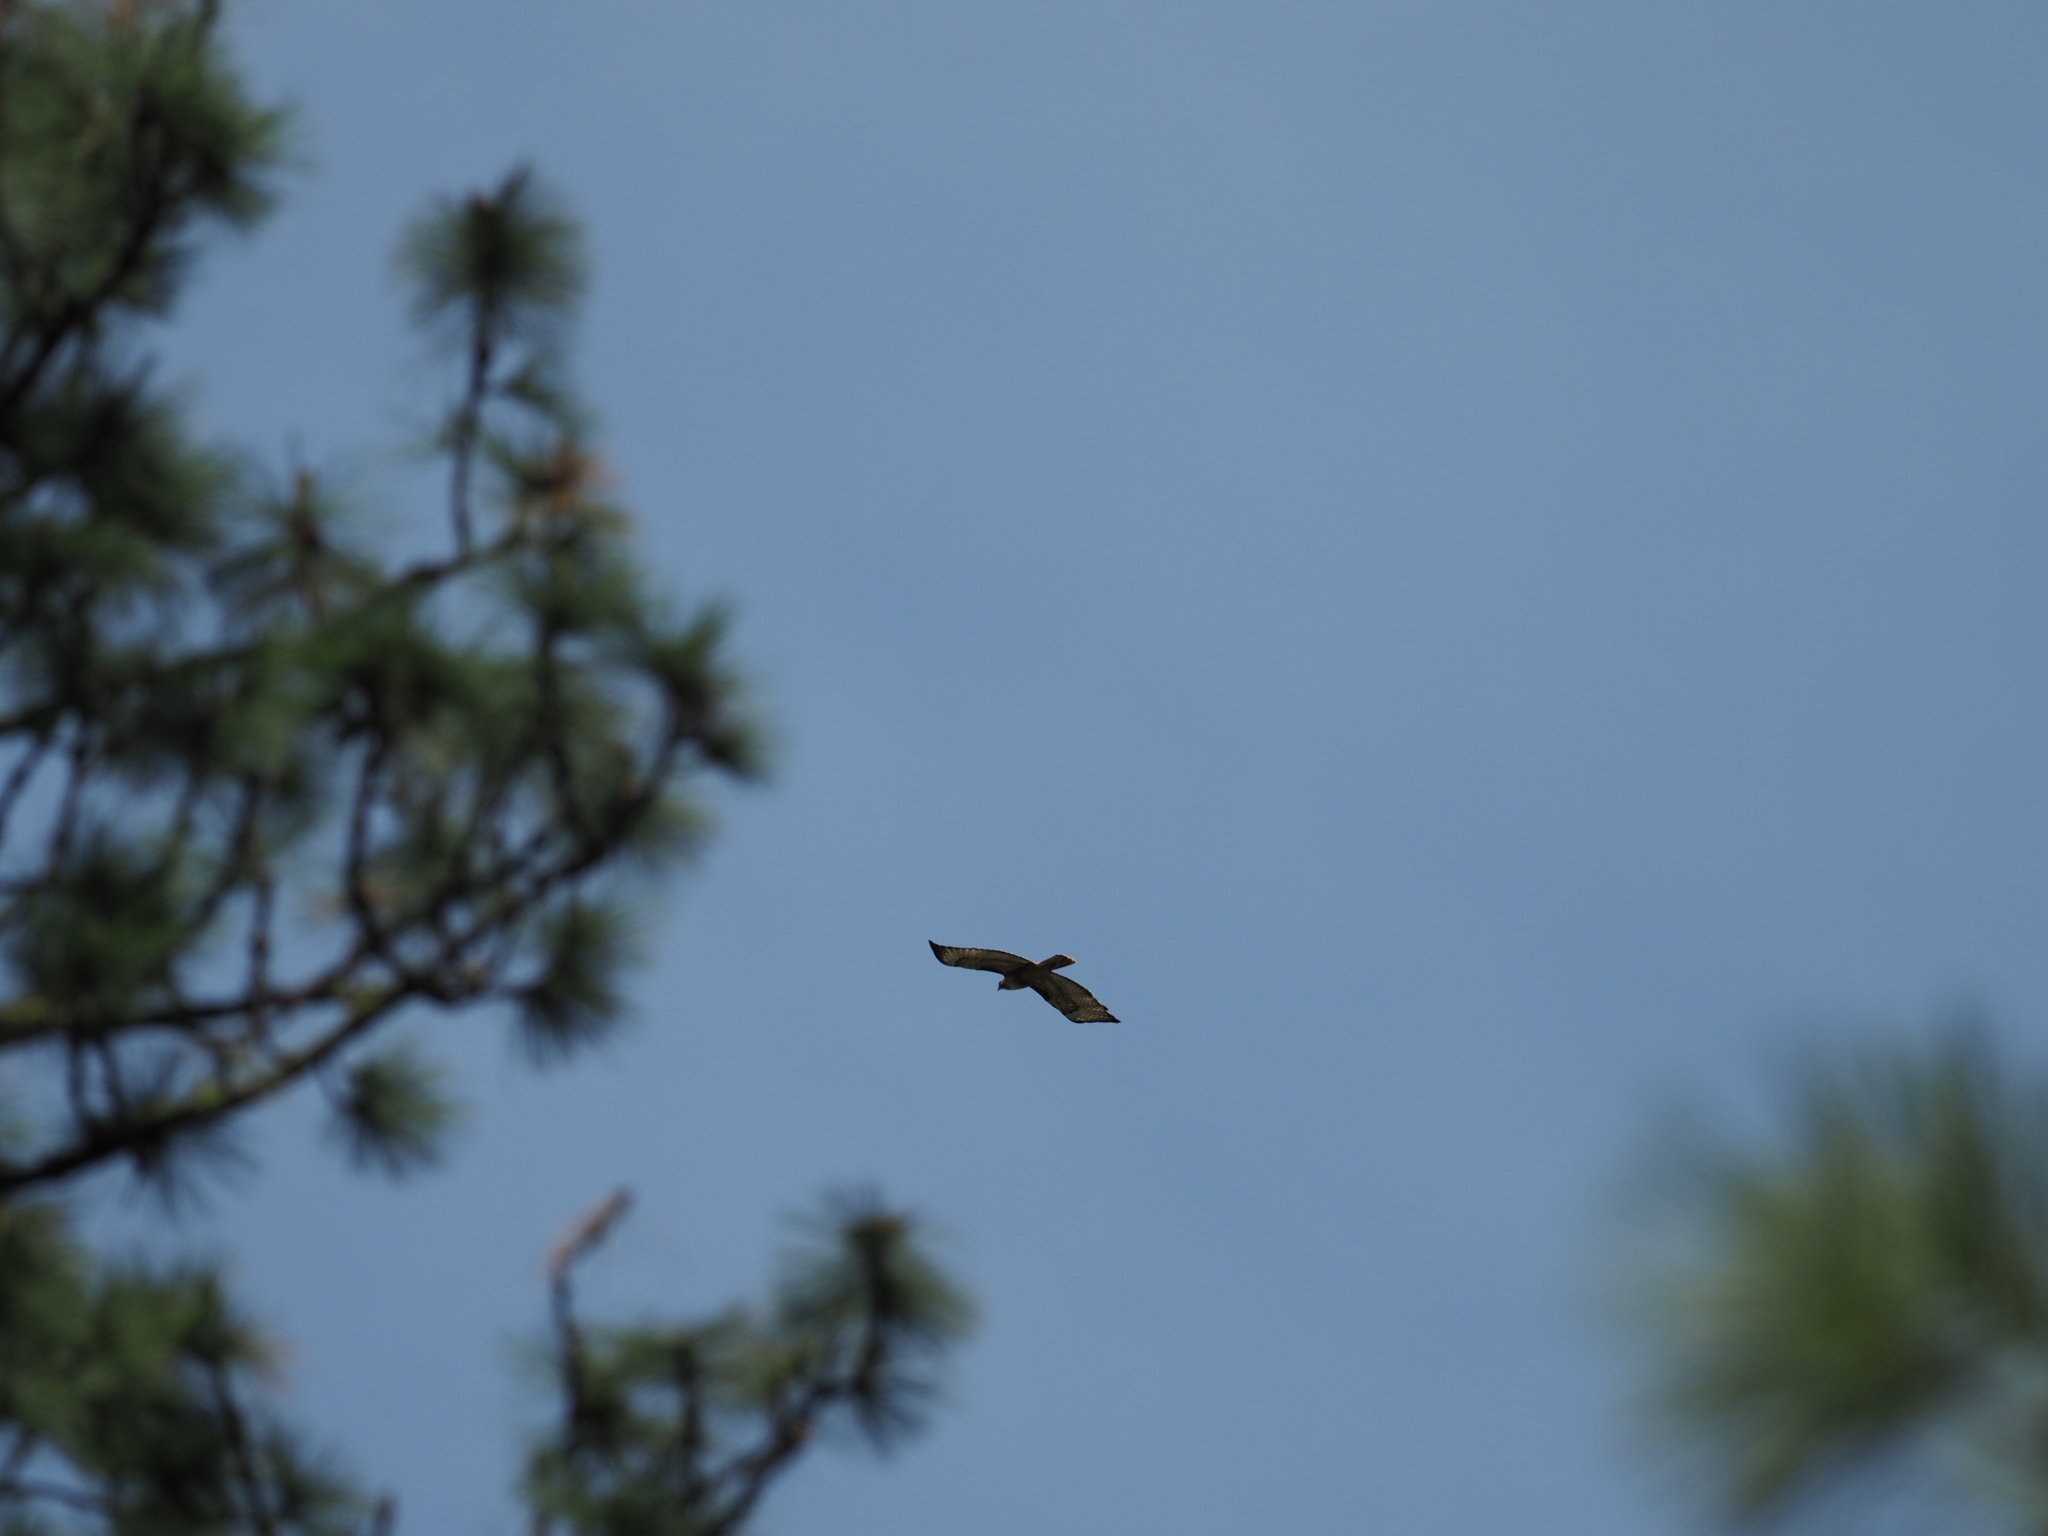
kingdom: Animalia
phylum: Chordata
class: Aves
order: Accipitriformes
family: Accipitridae
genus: Buteo
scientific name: Buteo jamaicensis
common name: Red-tailed hawk
